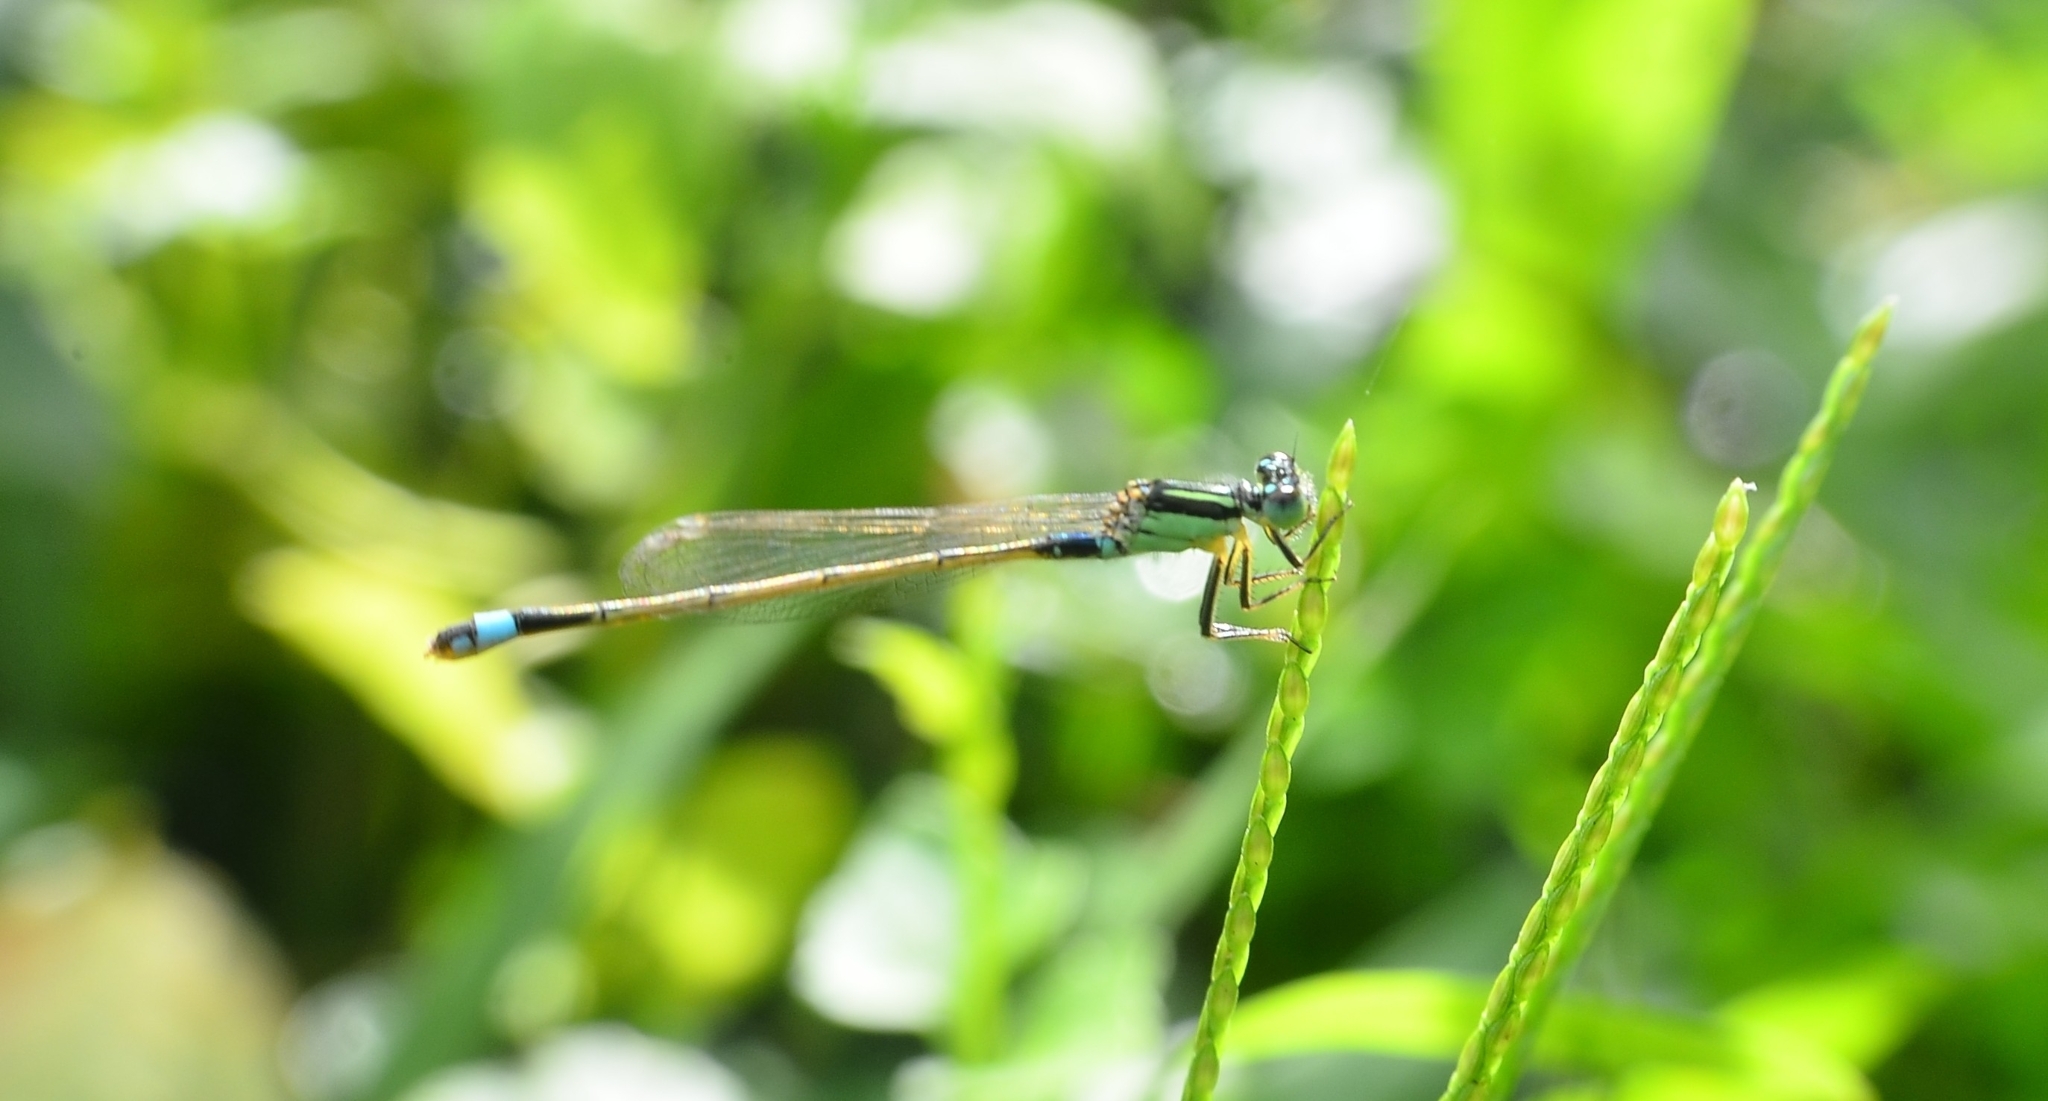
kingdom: Animalia
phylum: Arthropoda
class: Insecta
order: Odonata
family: Coenagrionidae
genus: Ischnura
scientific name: Ischnura senegalensis
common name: Tropical bluetail
